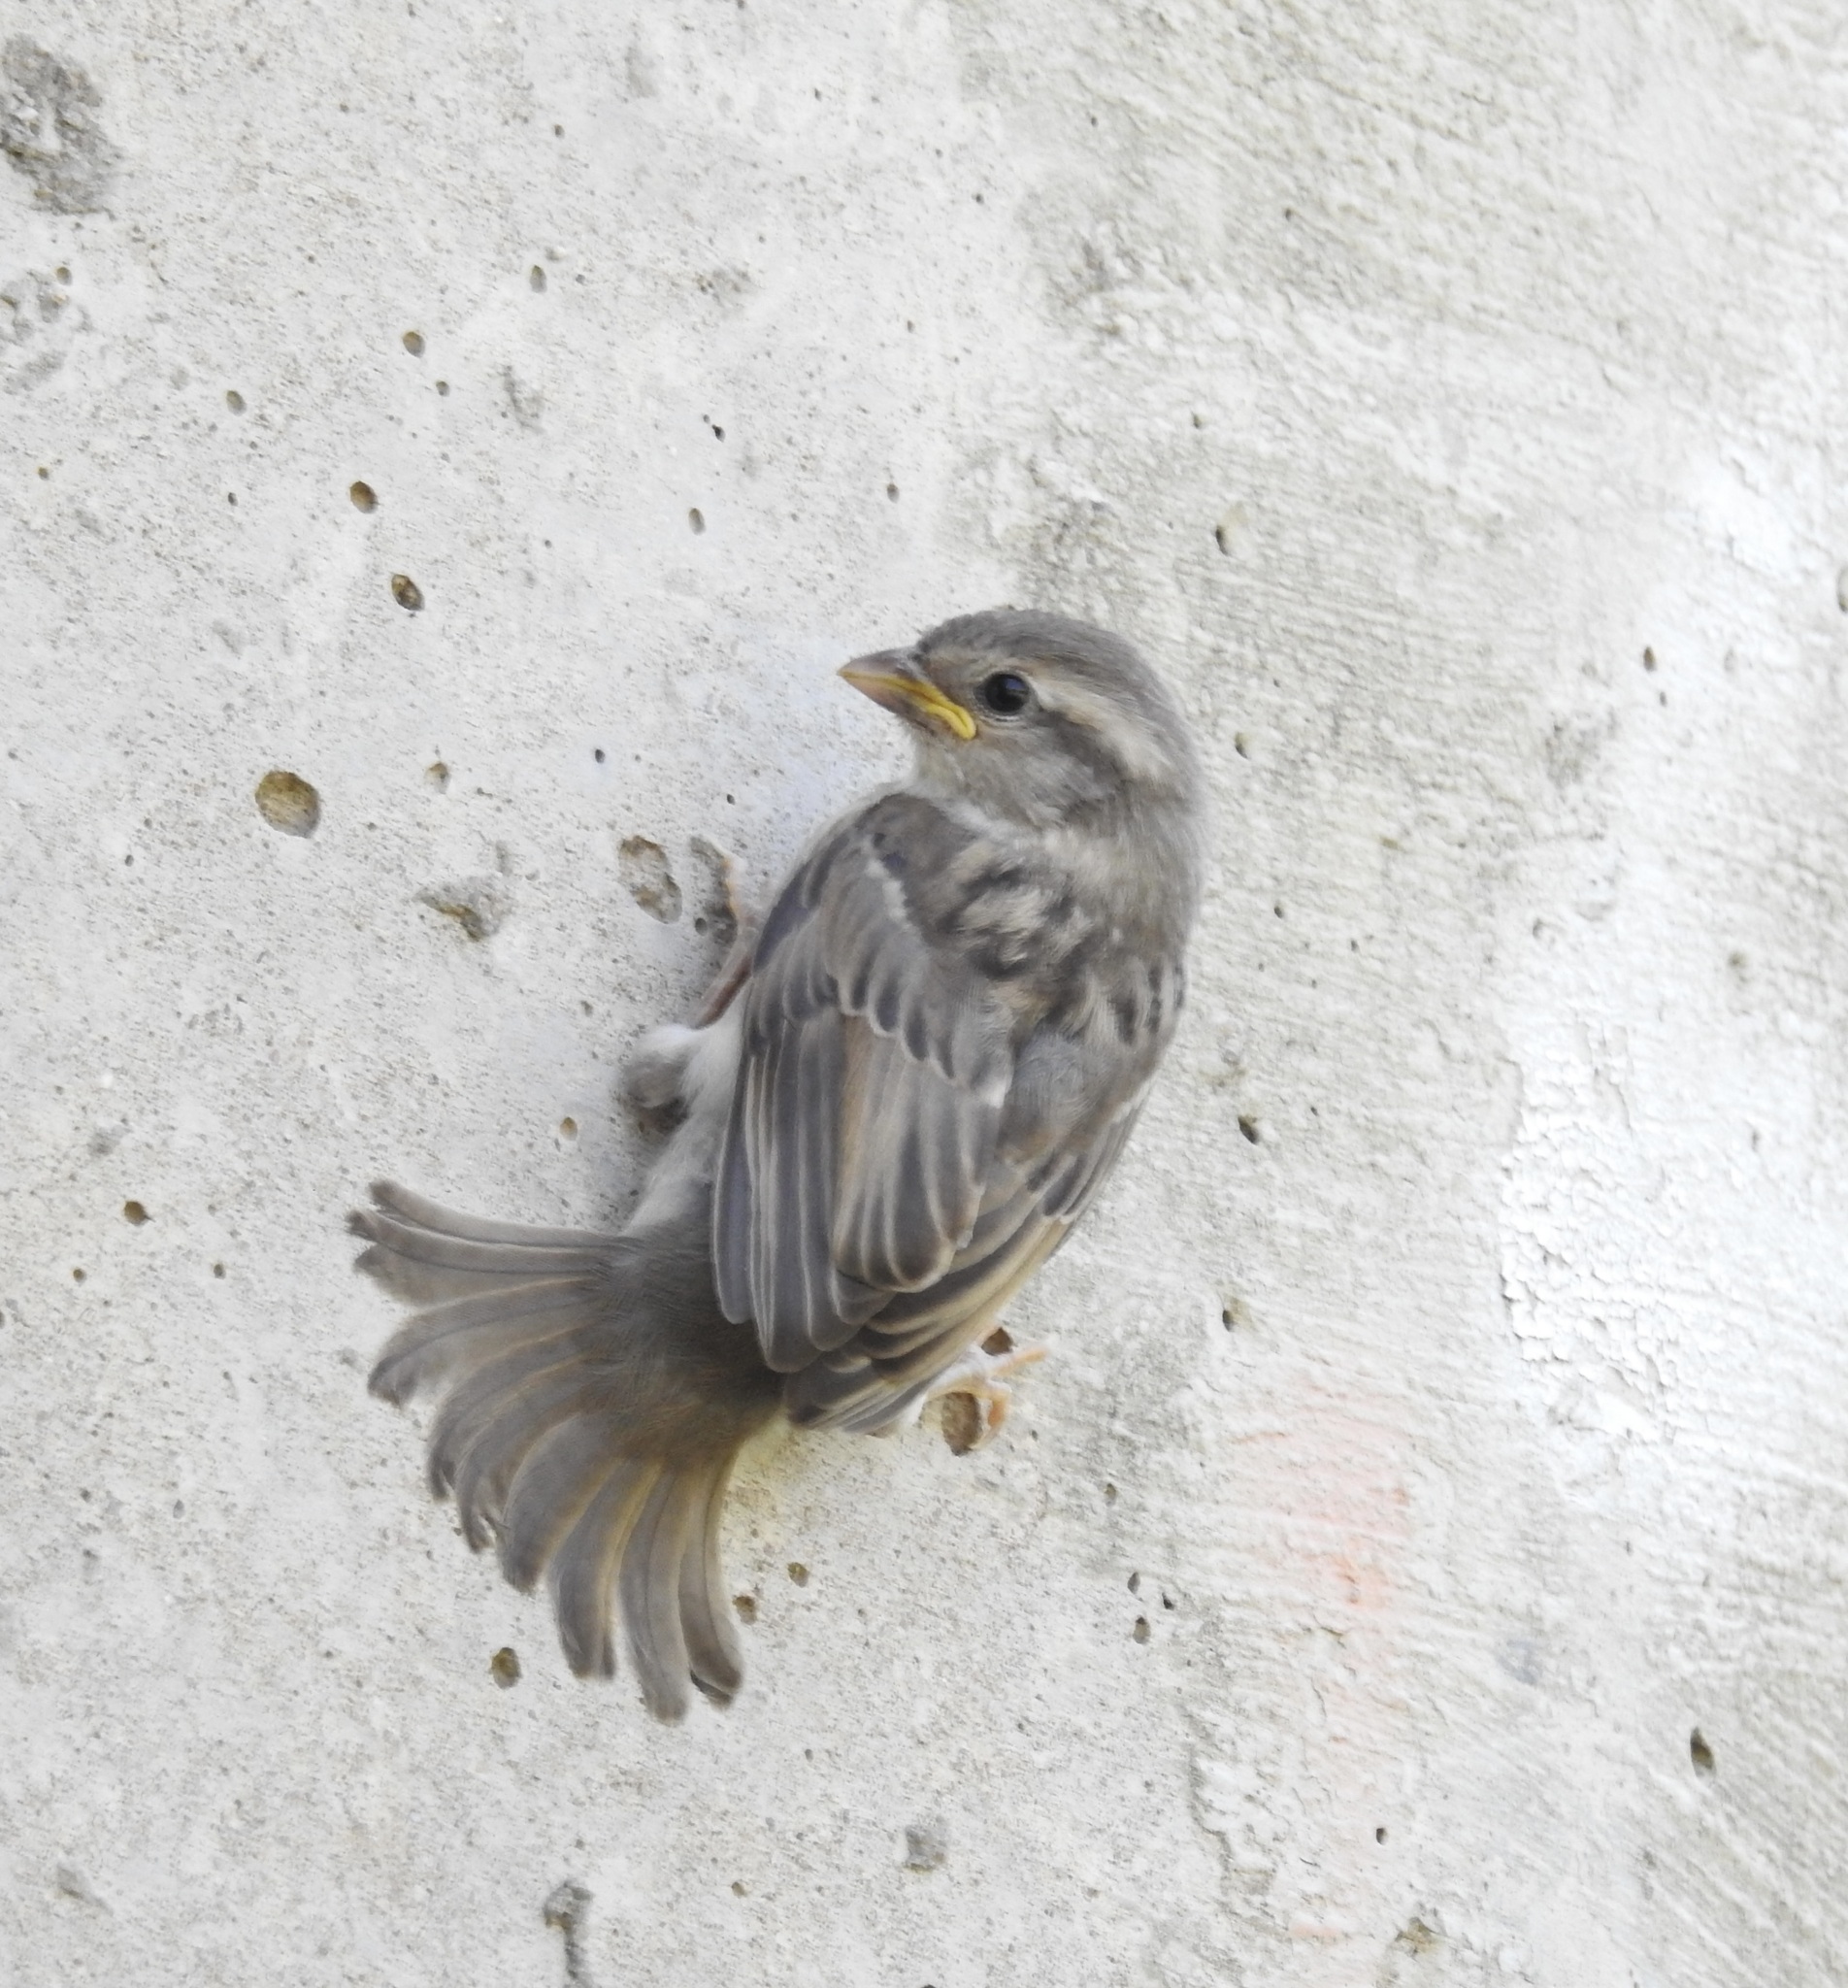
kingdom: Animalia
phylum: Chordata
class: Aves
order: Passeriformes
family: Passeridae
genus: Passer
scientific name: Passer domesticus
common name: House sparrow
